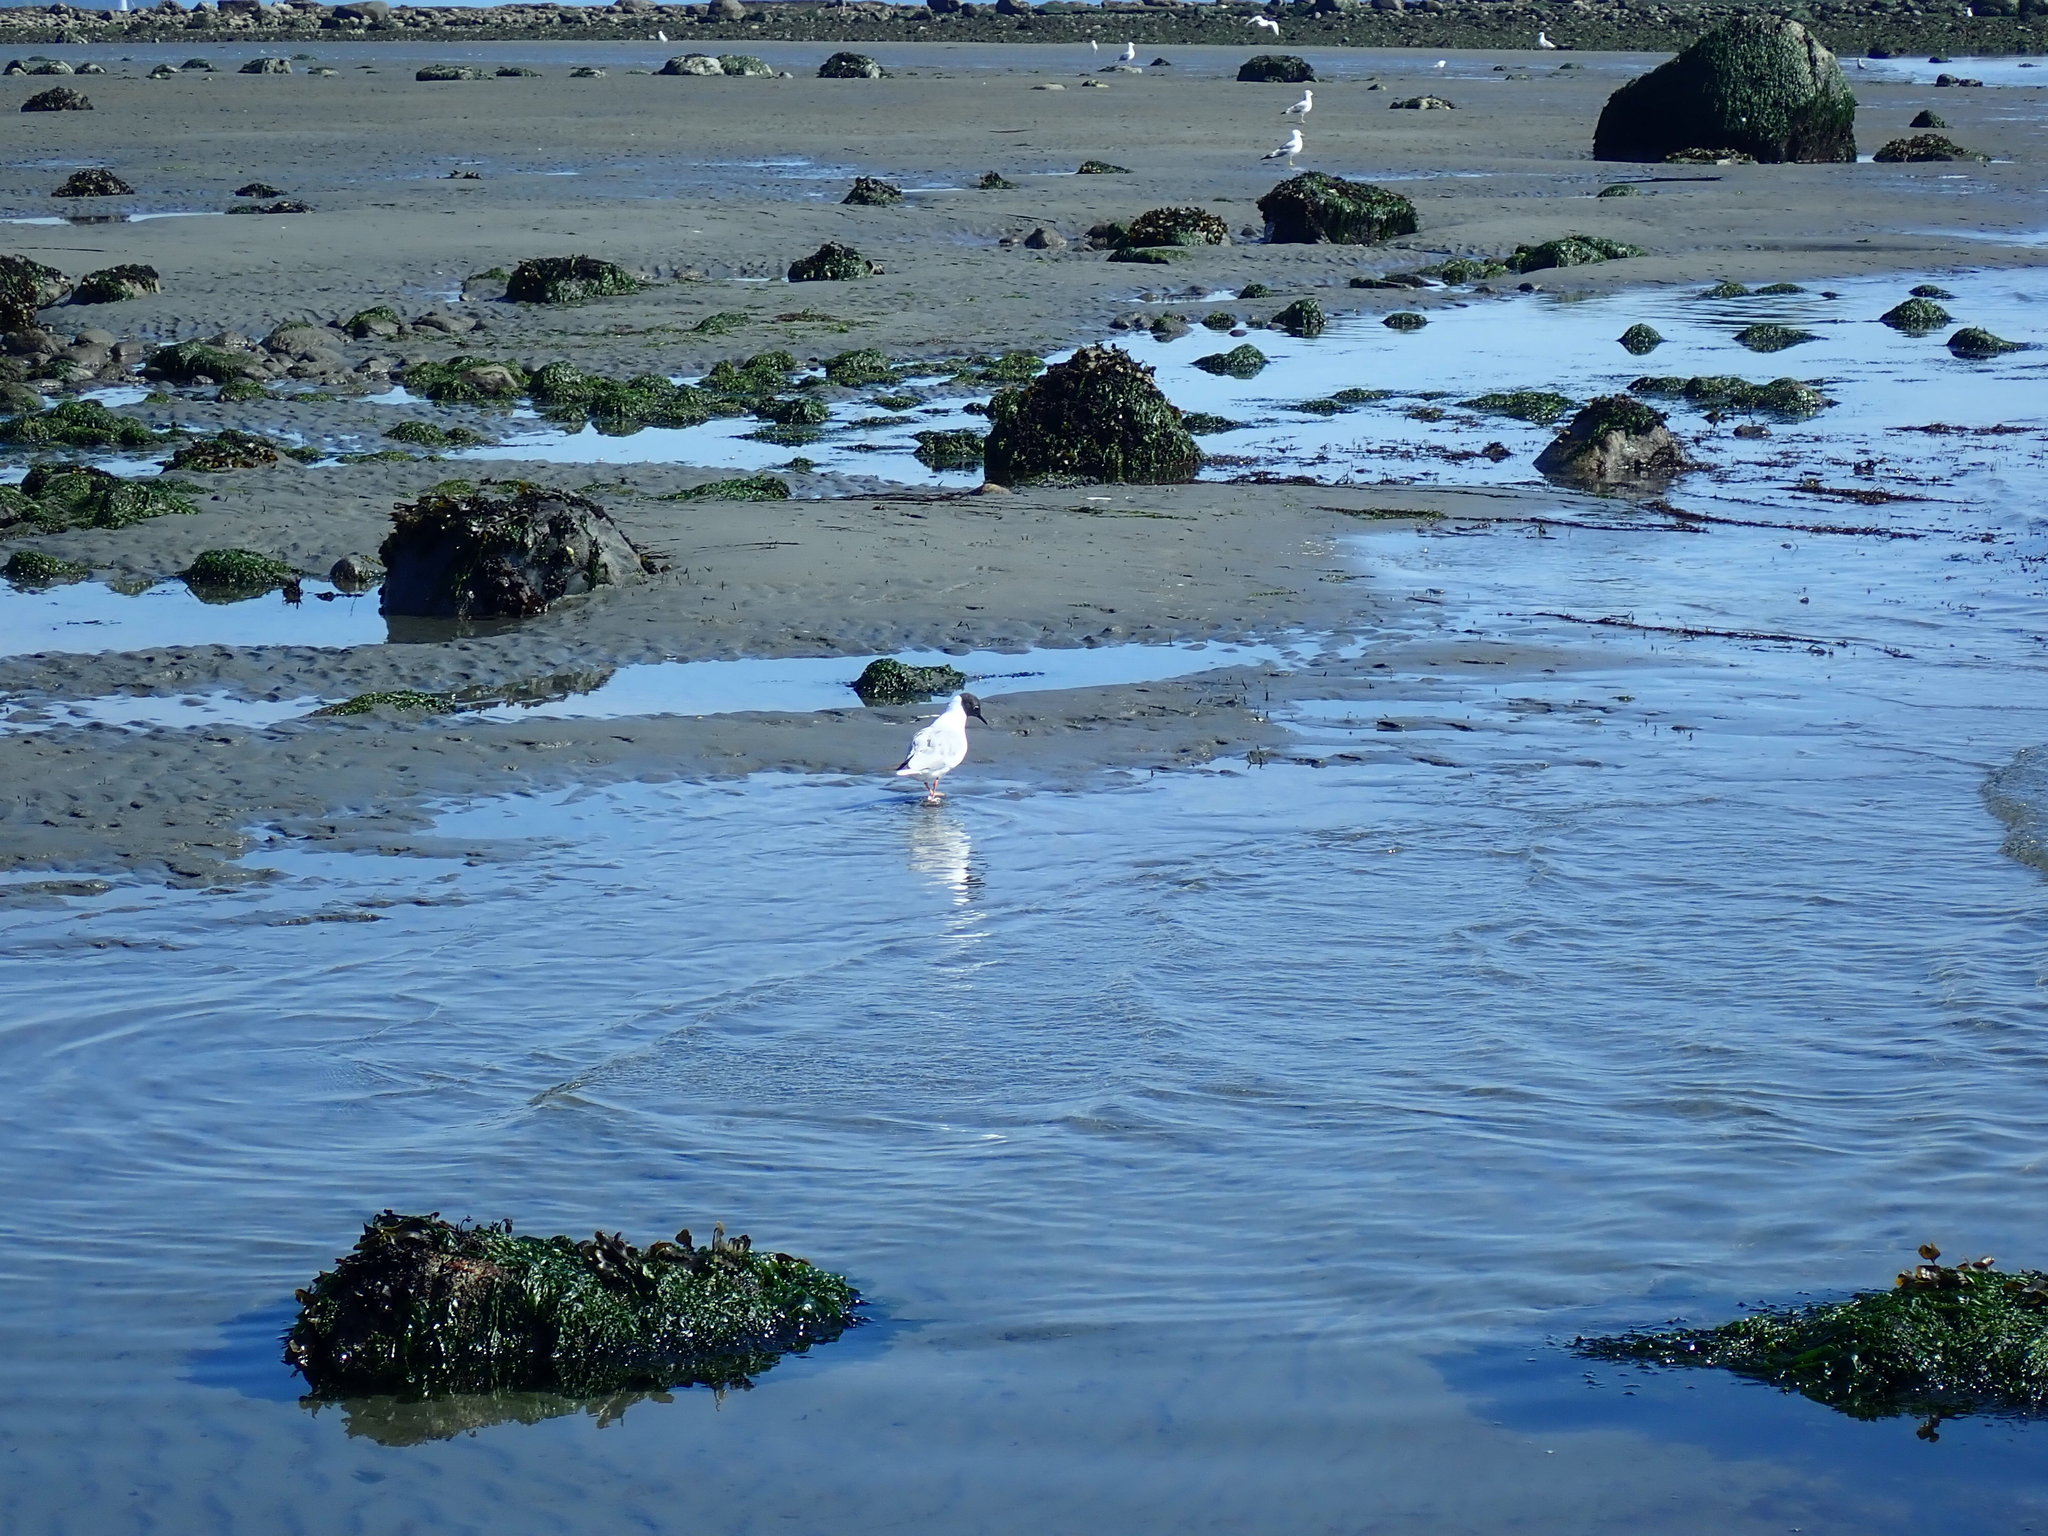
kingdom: Animalia
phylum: Chordata
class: Aves
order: Charadriiformes
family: Laridae
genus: Chroicocephalus
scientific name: Chroicocephalus philadelphia
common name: Bonaparte's gull
